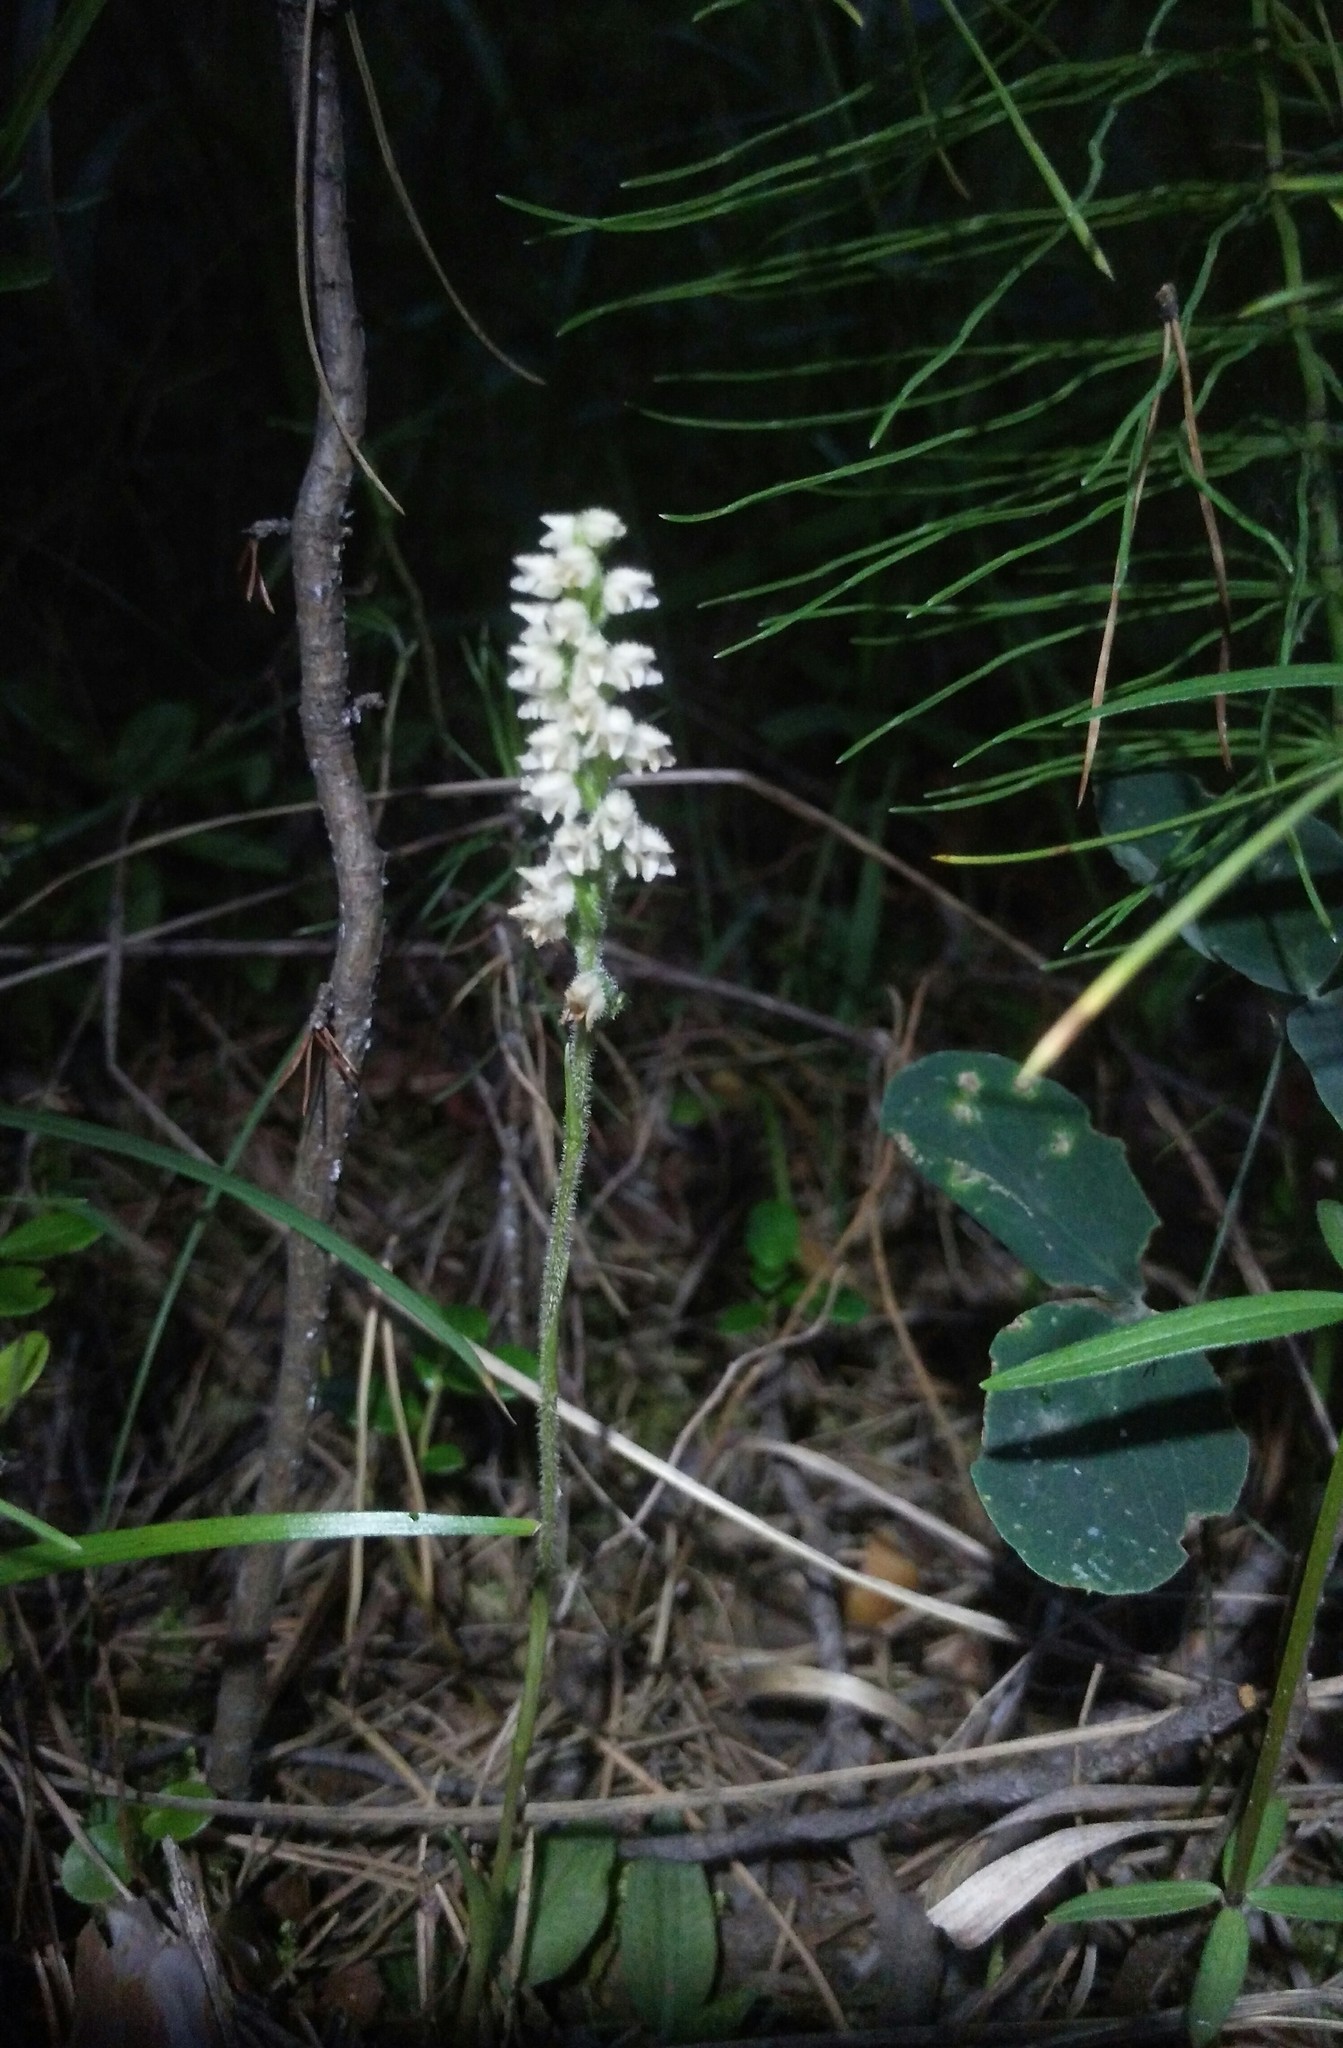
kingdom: Plantae
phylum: Tracheophyta
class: Liliopsida
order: Asparagales
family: Orchidaceae
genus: Goodyera
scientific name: Goodyera repens
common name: Creeping lady's-tresses
